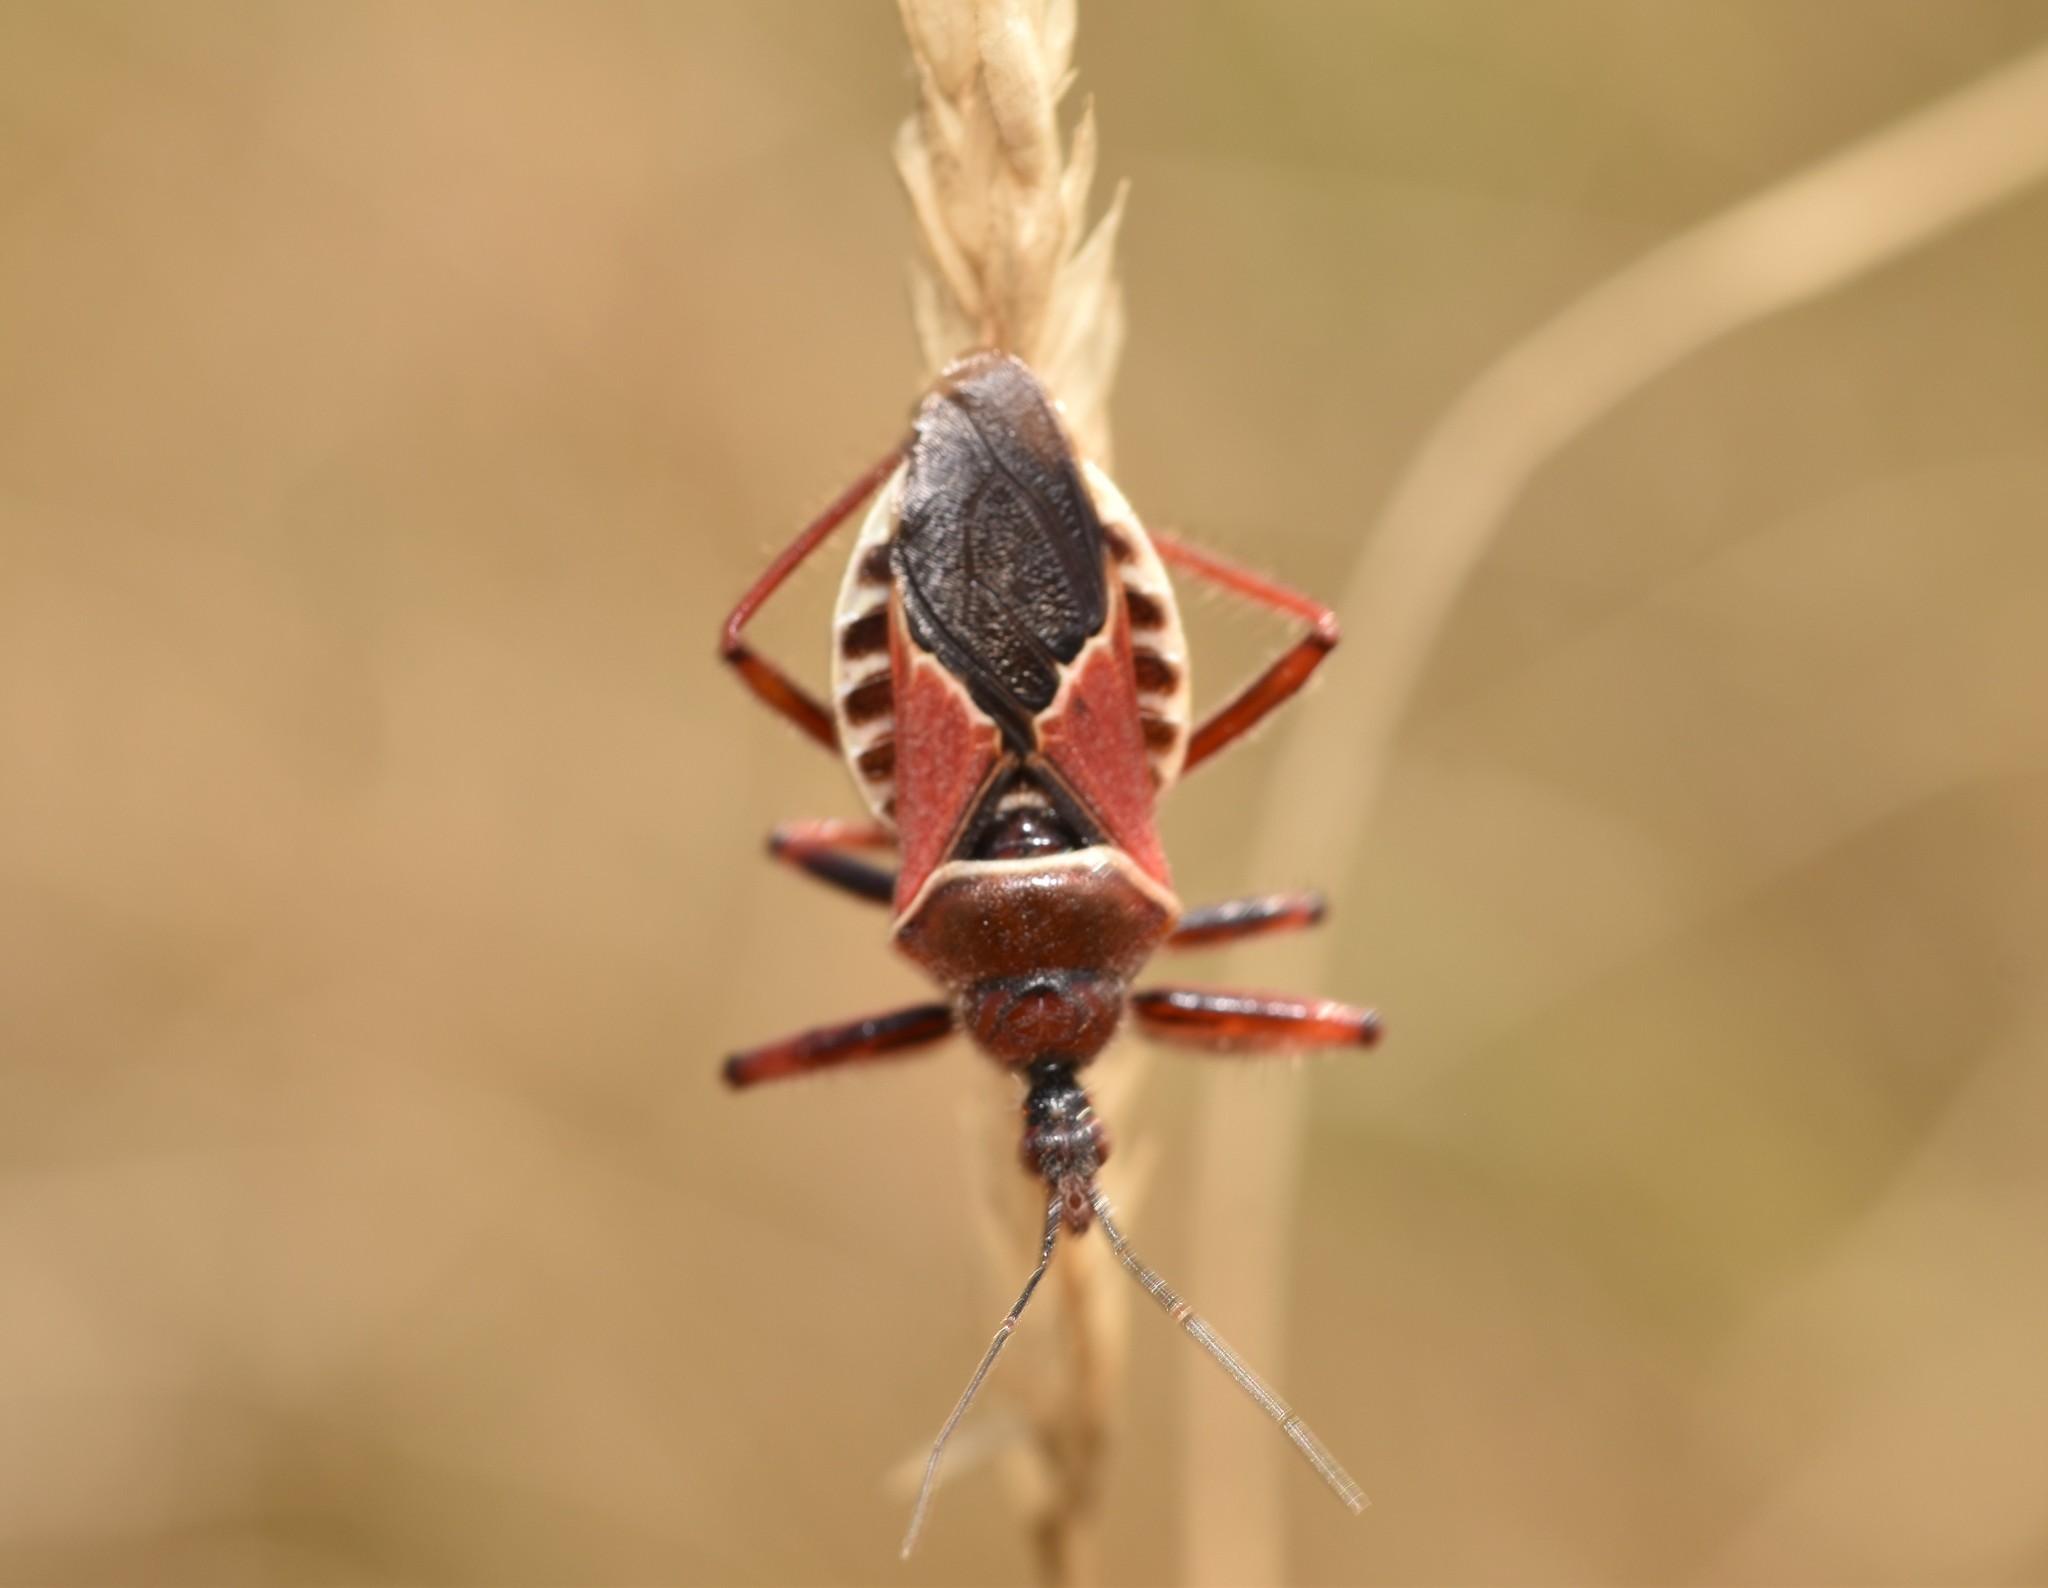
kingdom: Animalia
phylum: Arthropoda
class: Insecta
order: Hemiptera
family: Reduviidae
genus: Apiomerus
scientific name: Apiomerus spissipes
